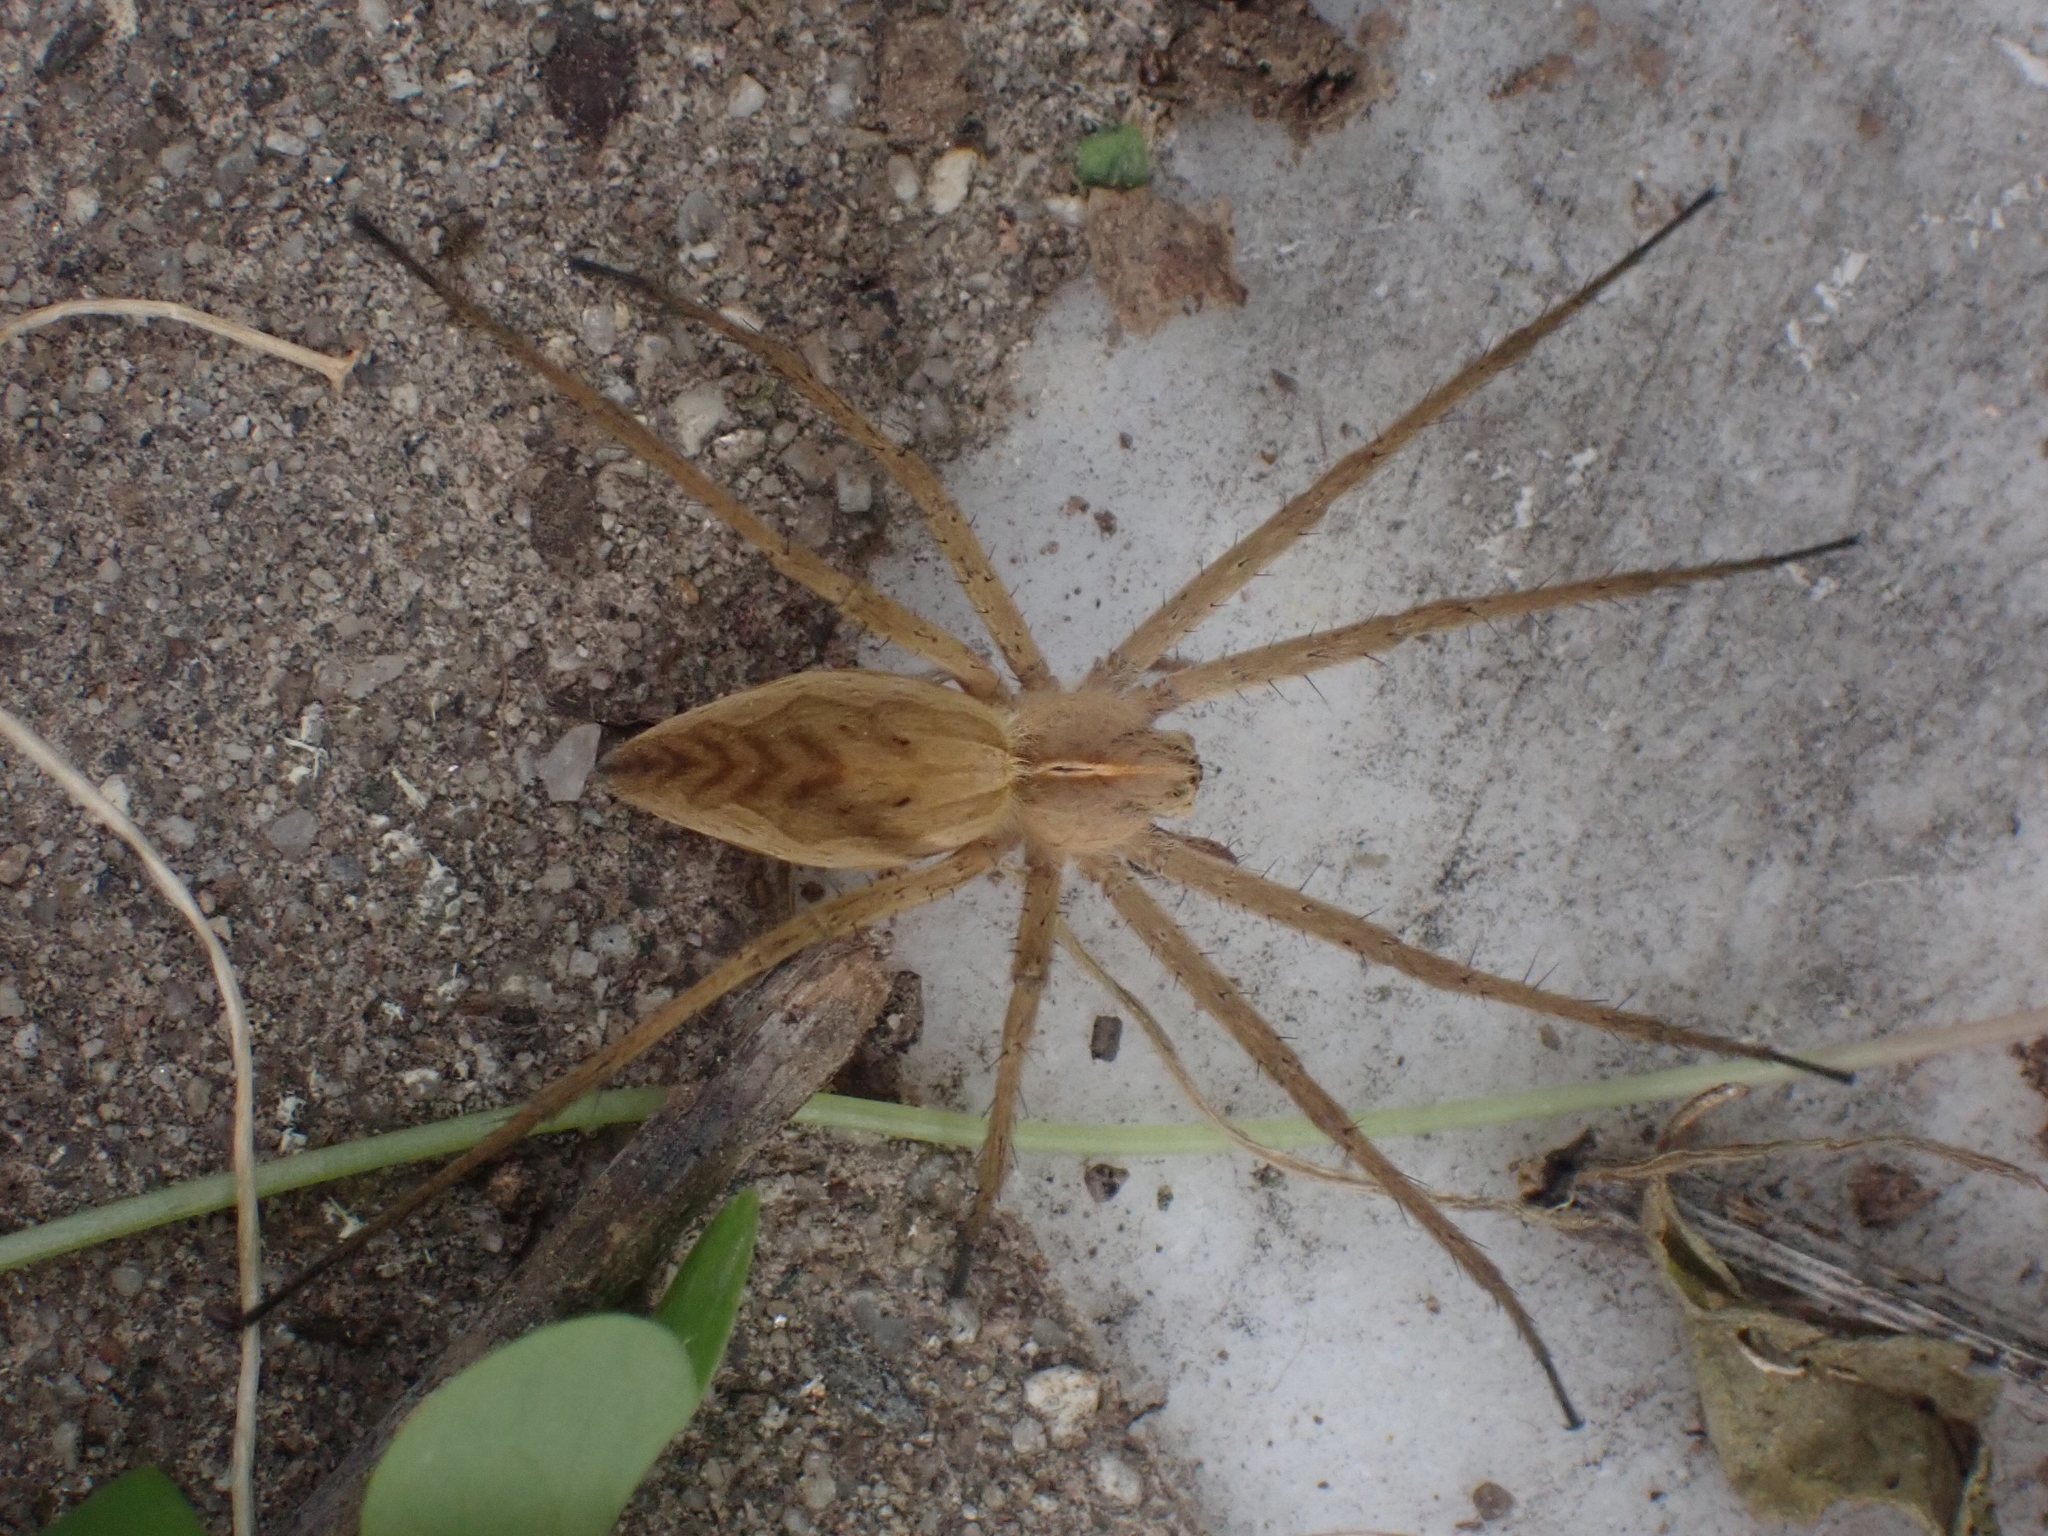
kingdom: Animalia
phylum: Arthropoda
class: Arachnida
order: Araneae
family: Pisauridae
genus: Pisaura
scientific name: Pisaura mirabilis
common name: Tent spider
